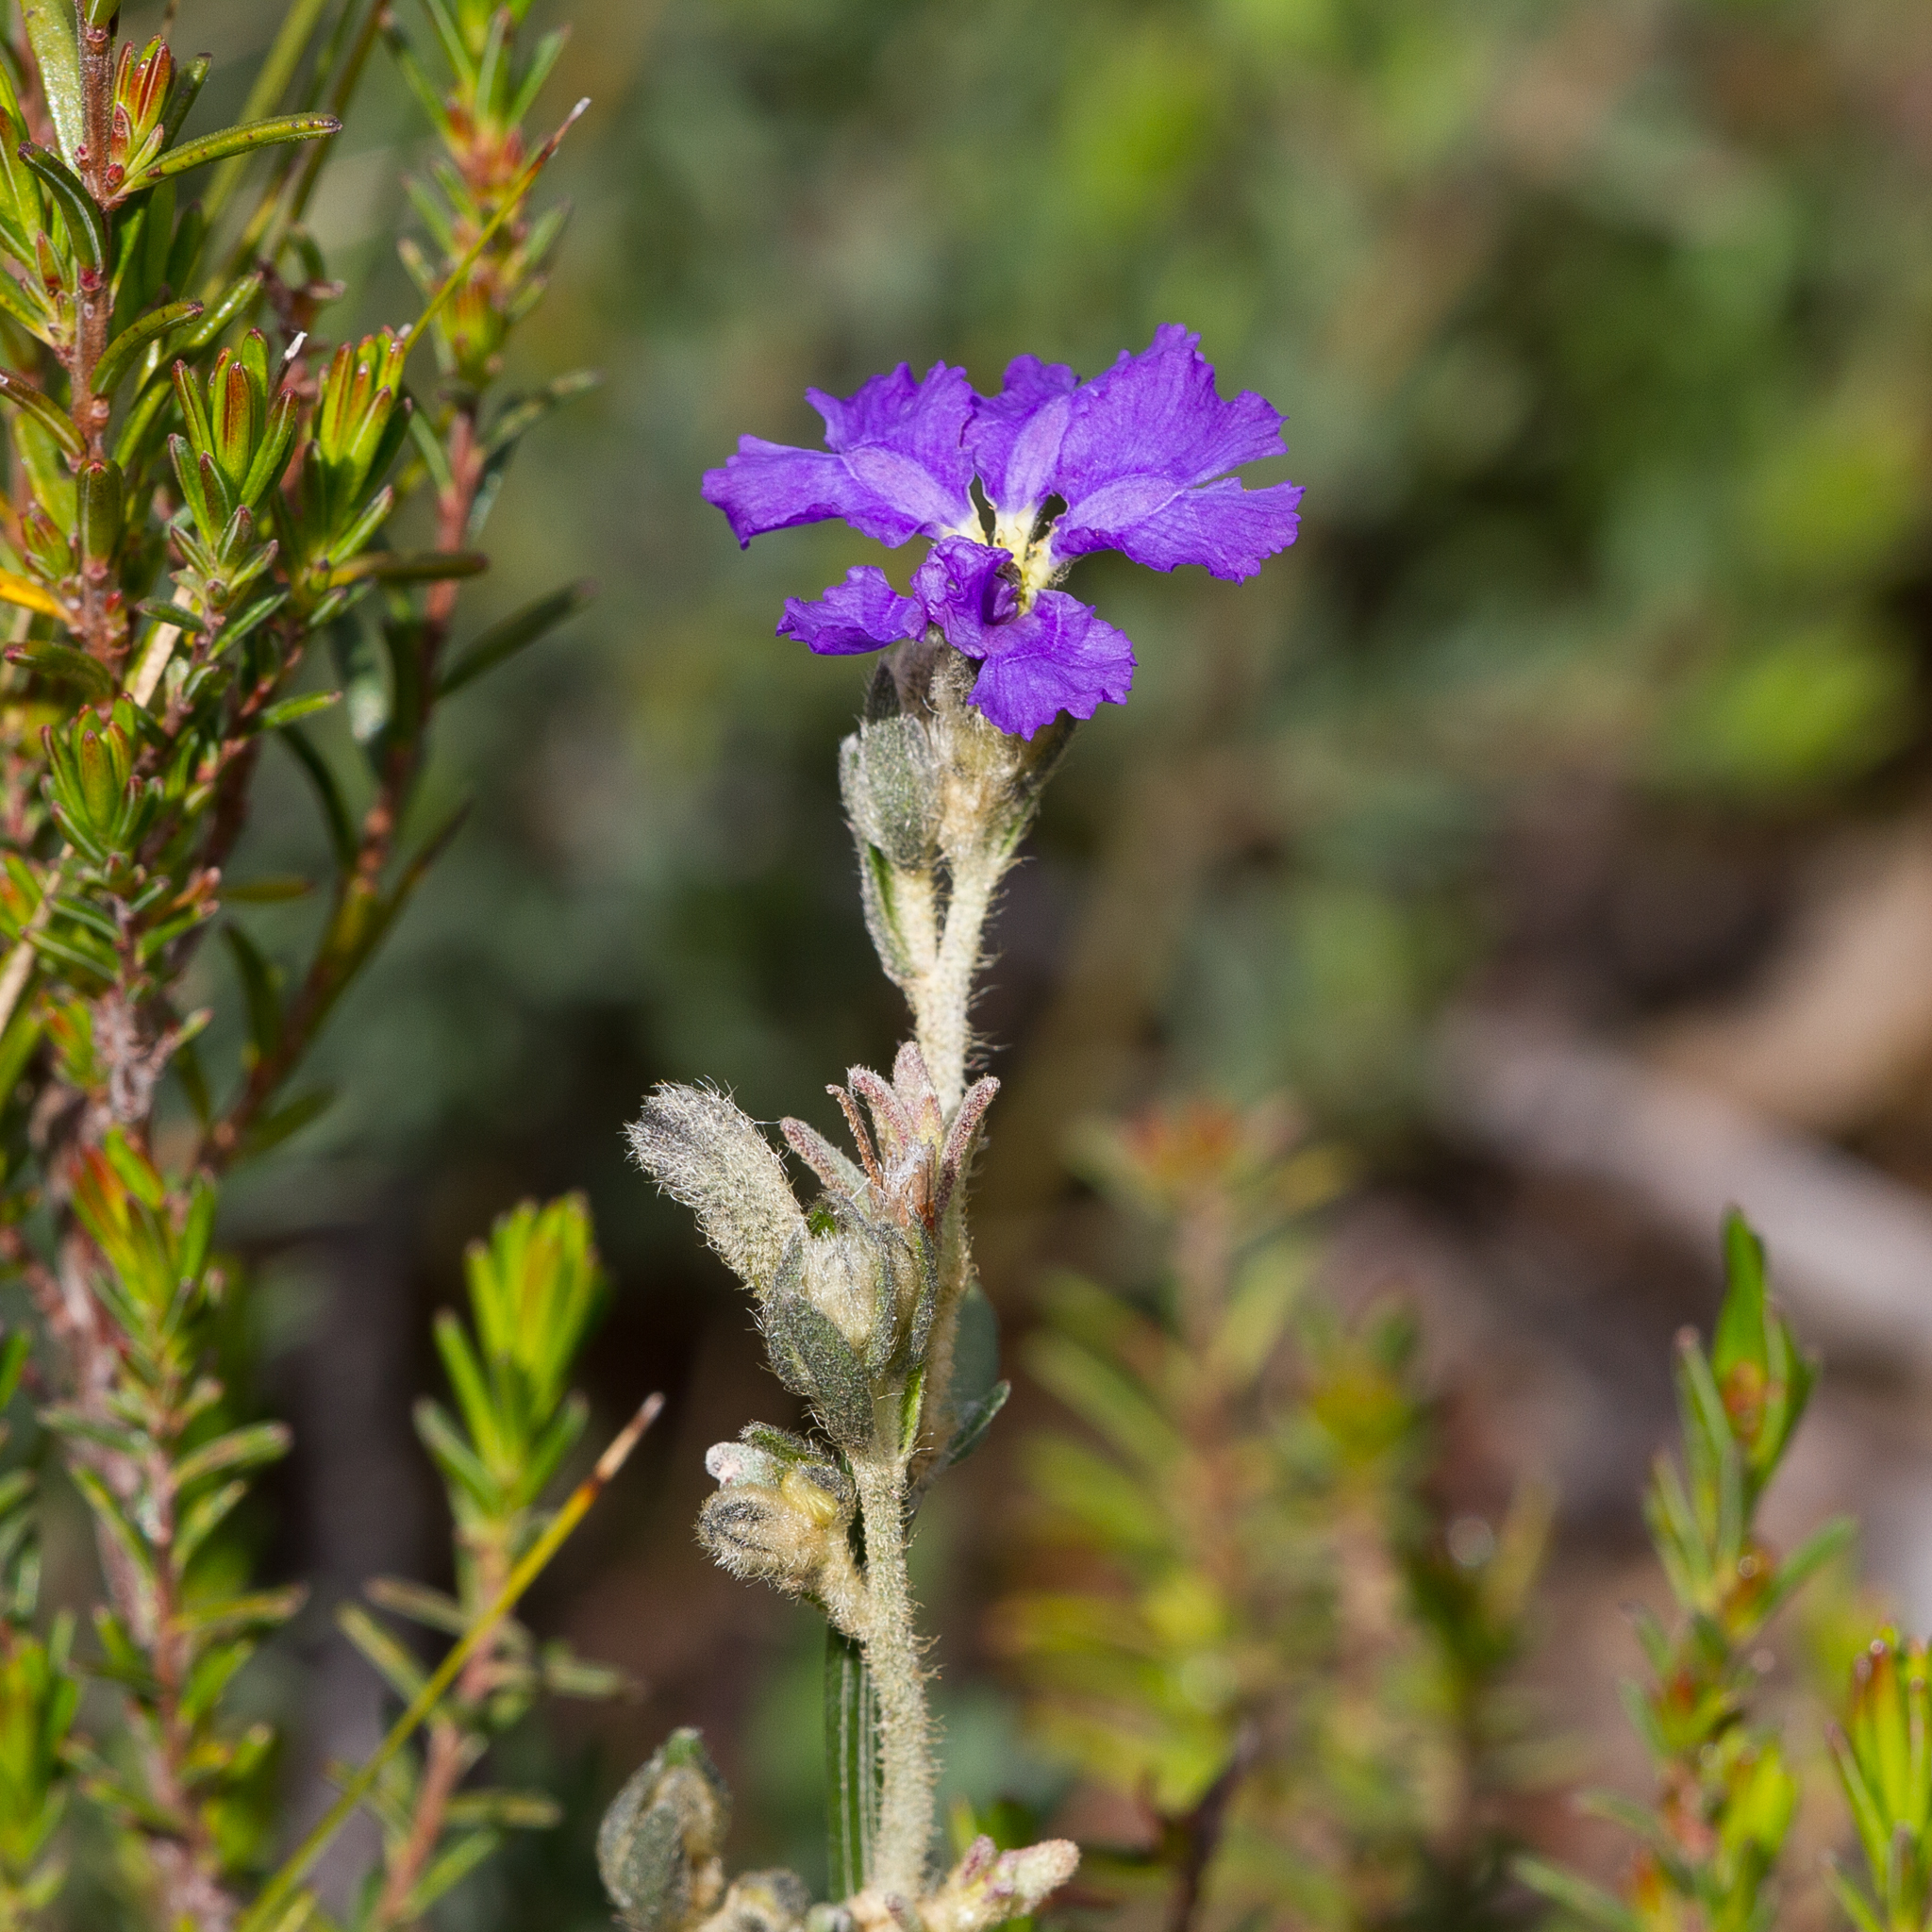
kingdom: Plantae
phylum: Tracheophyta
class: Magnoliopsida
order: Asterales
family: Goodeniaceae
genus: Dampiera
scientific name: Dampiera dysantha
